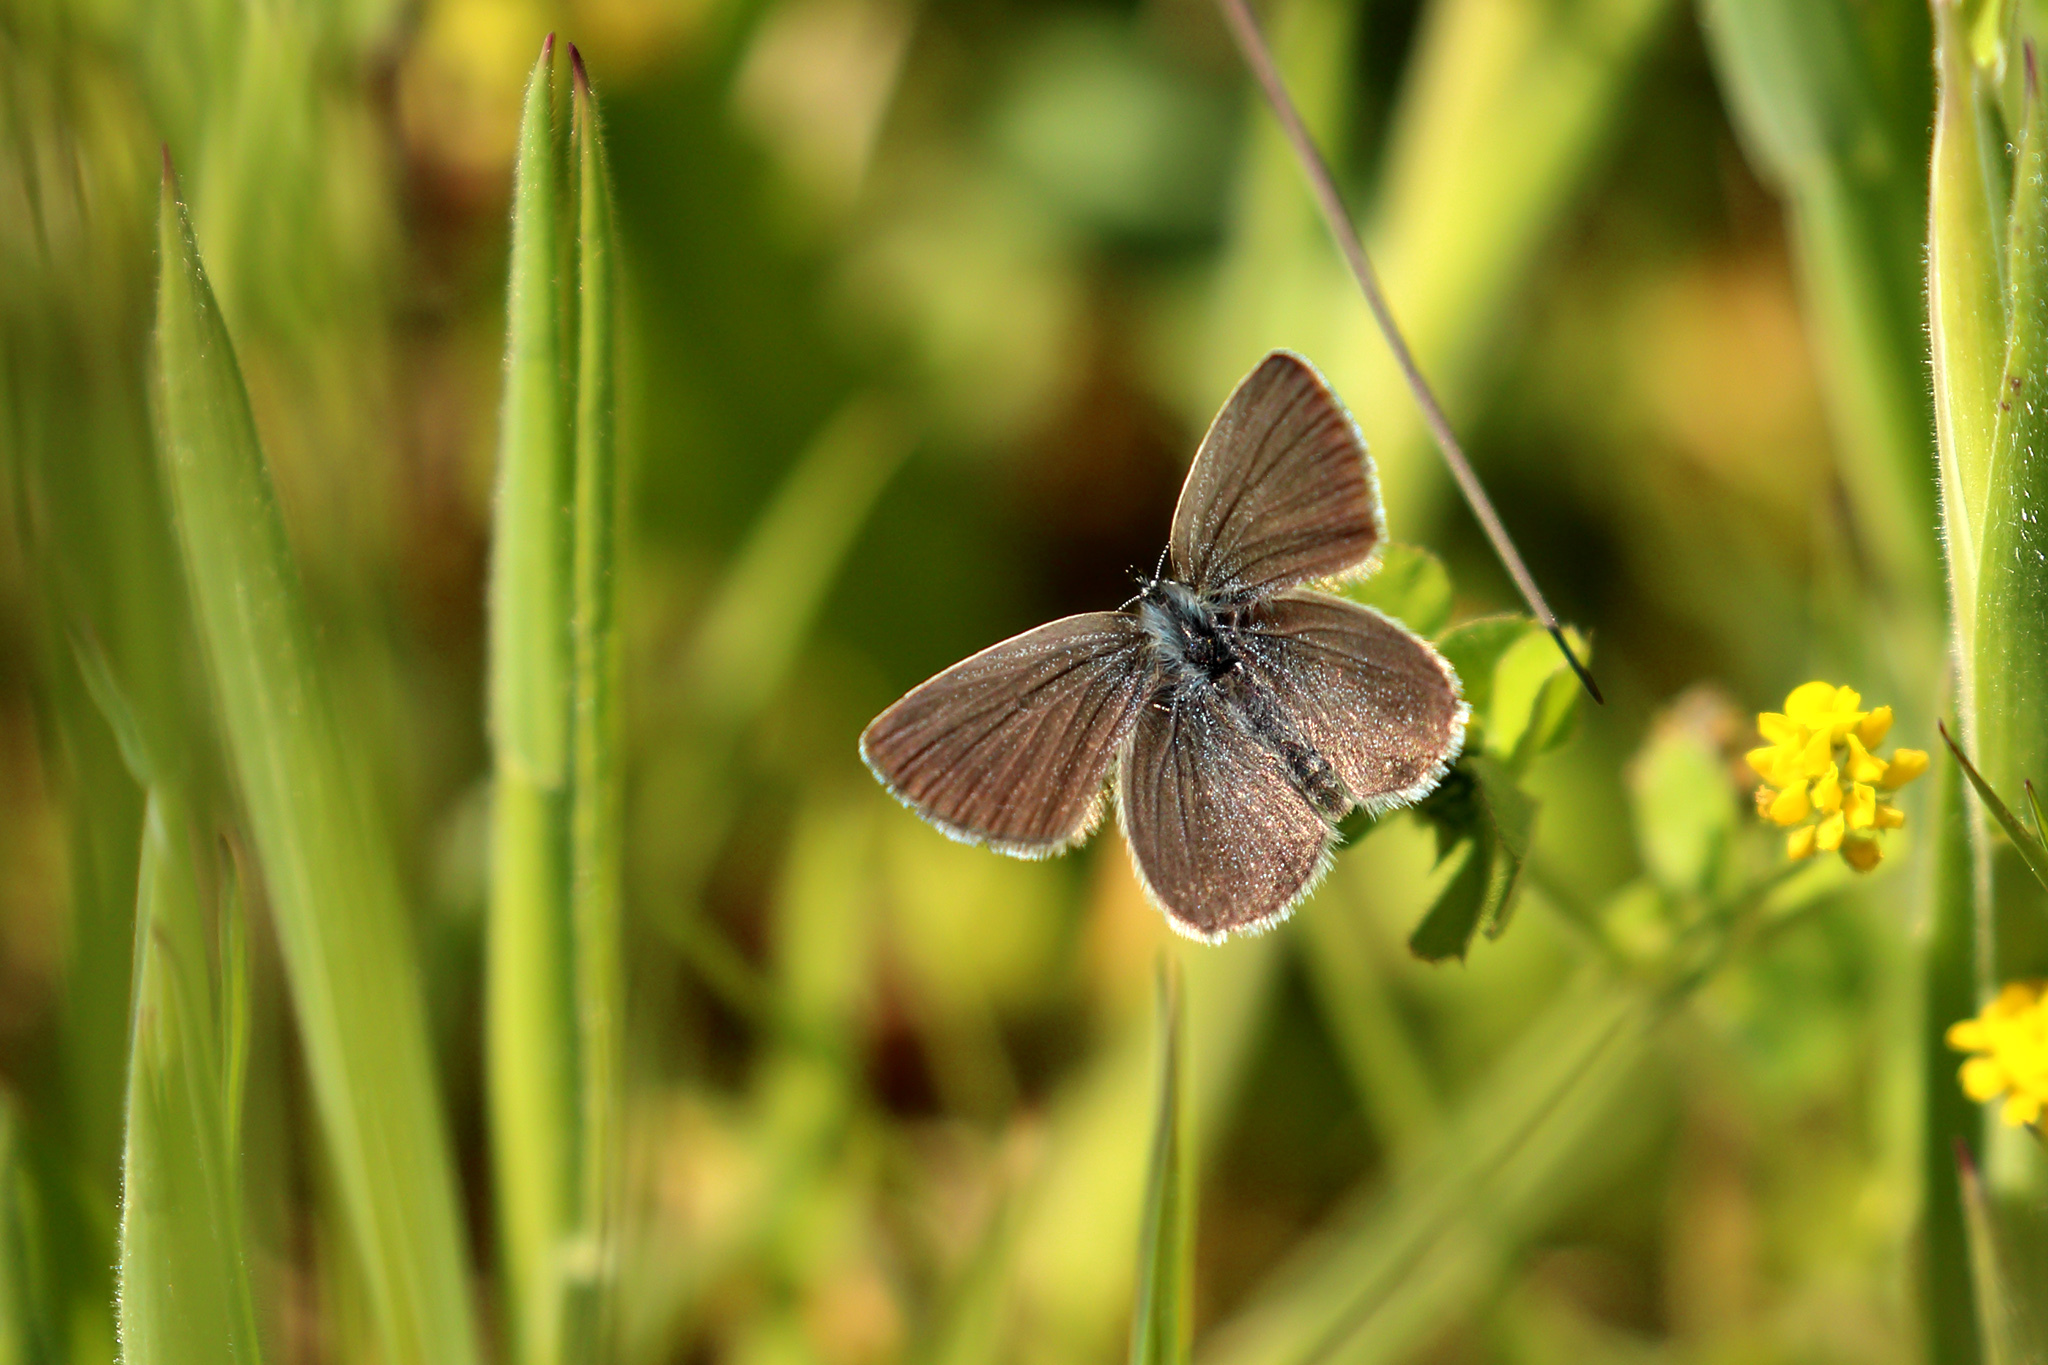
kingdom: Animalia
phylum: Arthropoda
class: Insecta
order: Lepidoptera
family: Lycaenidae
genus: Cupido
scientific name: Cupido minimus
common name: Small blue
